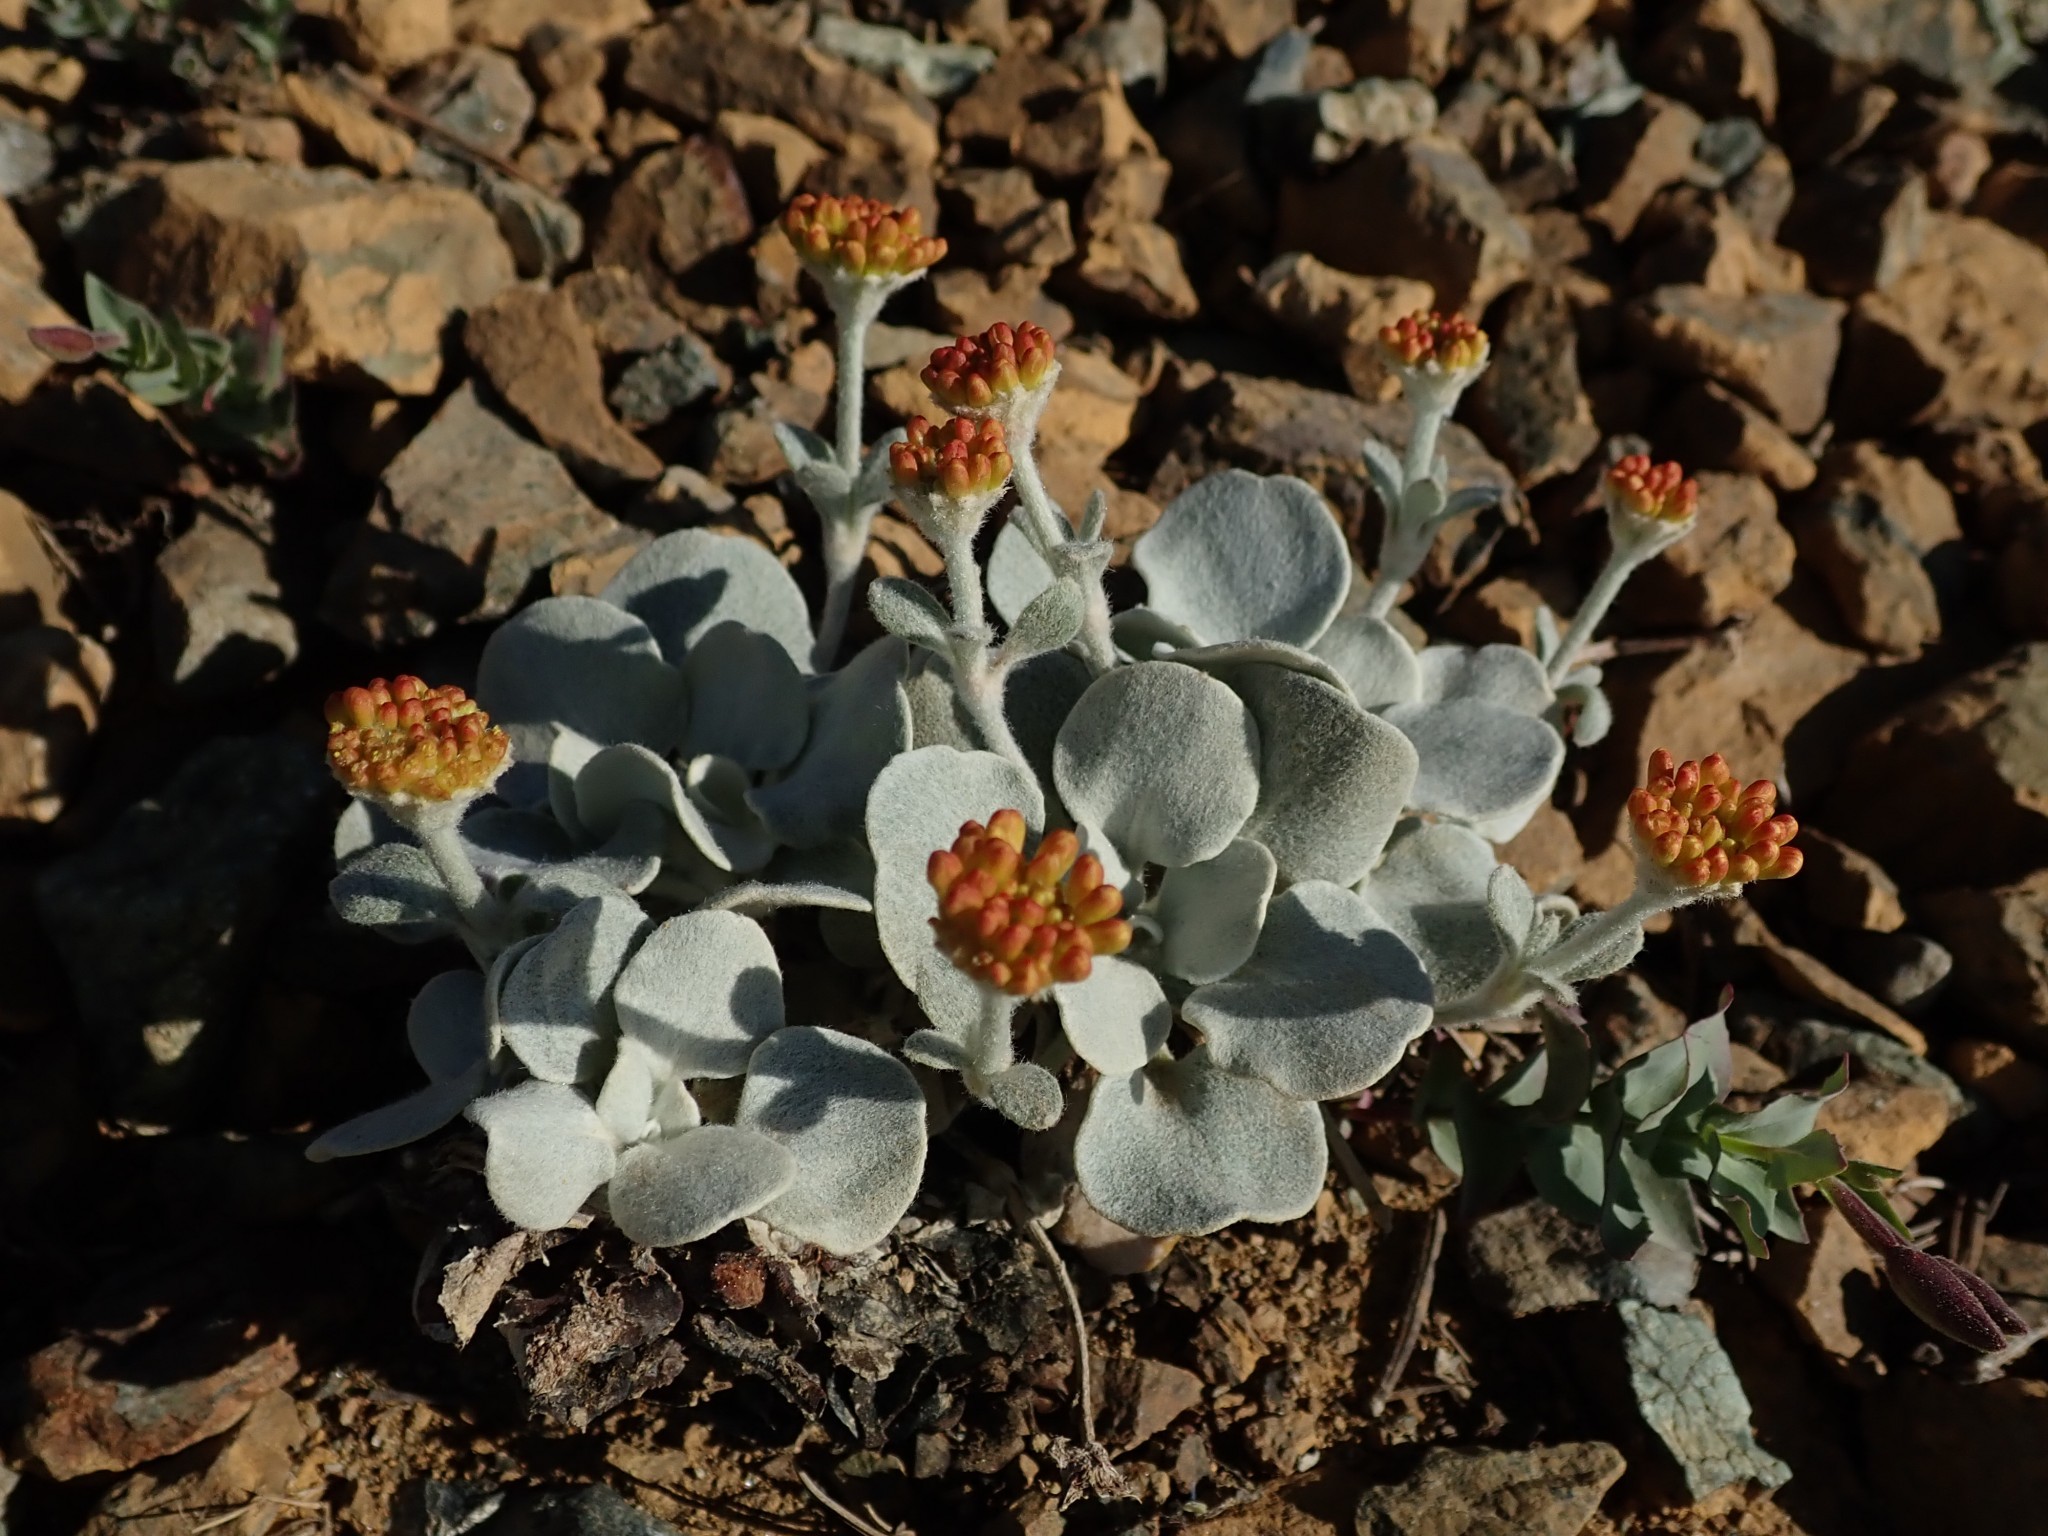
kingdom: Plantae
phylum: Tracheophyta
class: Magnoliopsida
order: Caryophyllales
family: Polygonaceae
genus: Eriogonum
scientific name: Eriogonum alpinum
